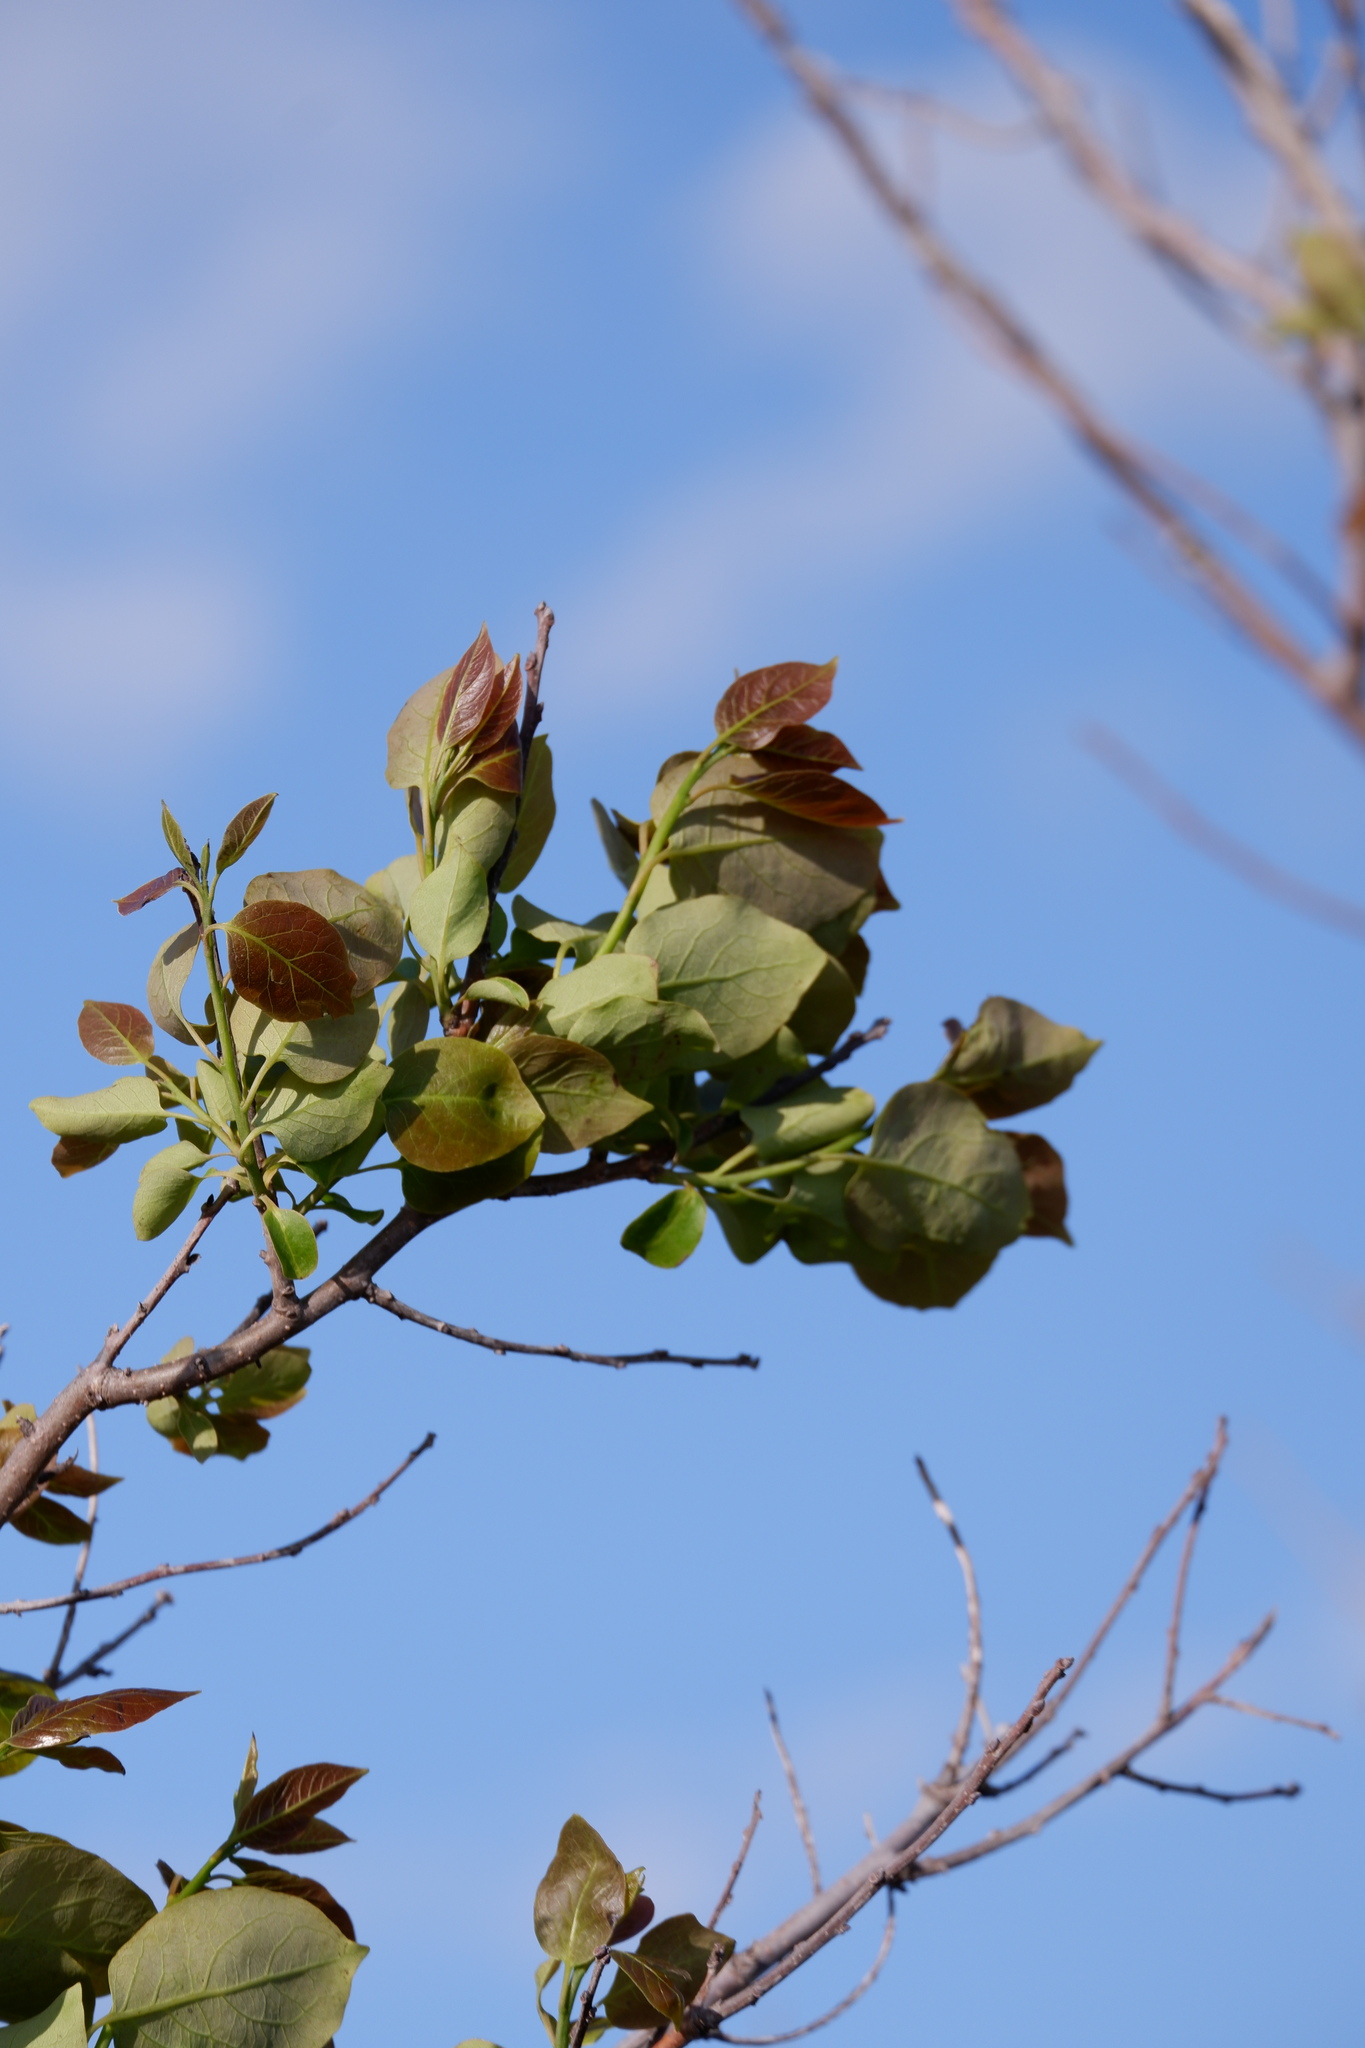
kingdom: Plantae
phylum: Tracheophyta
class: Magnoliopsida
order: Ericales
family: Ebenaceae
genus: Diospyros
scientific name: Diospyros virginiana
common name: Persimmon
